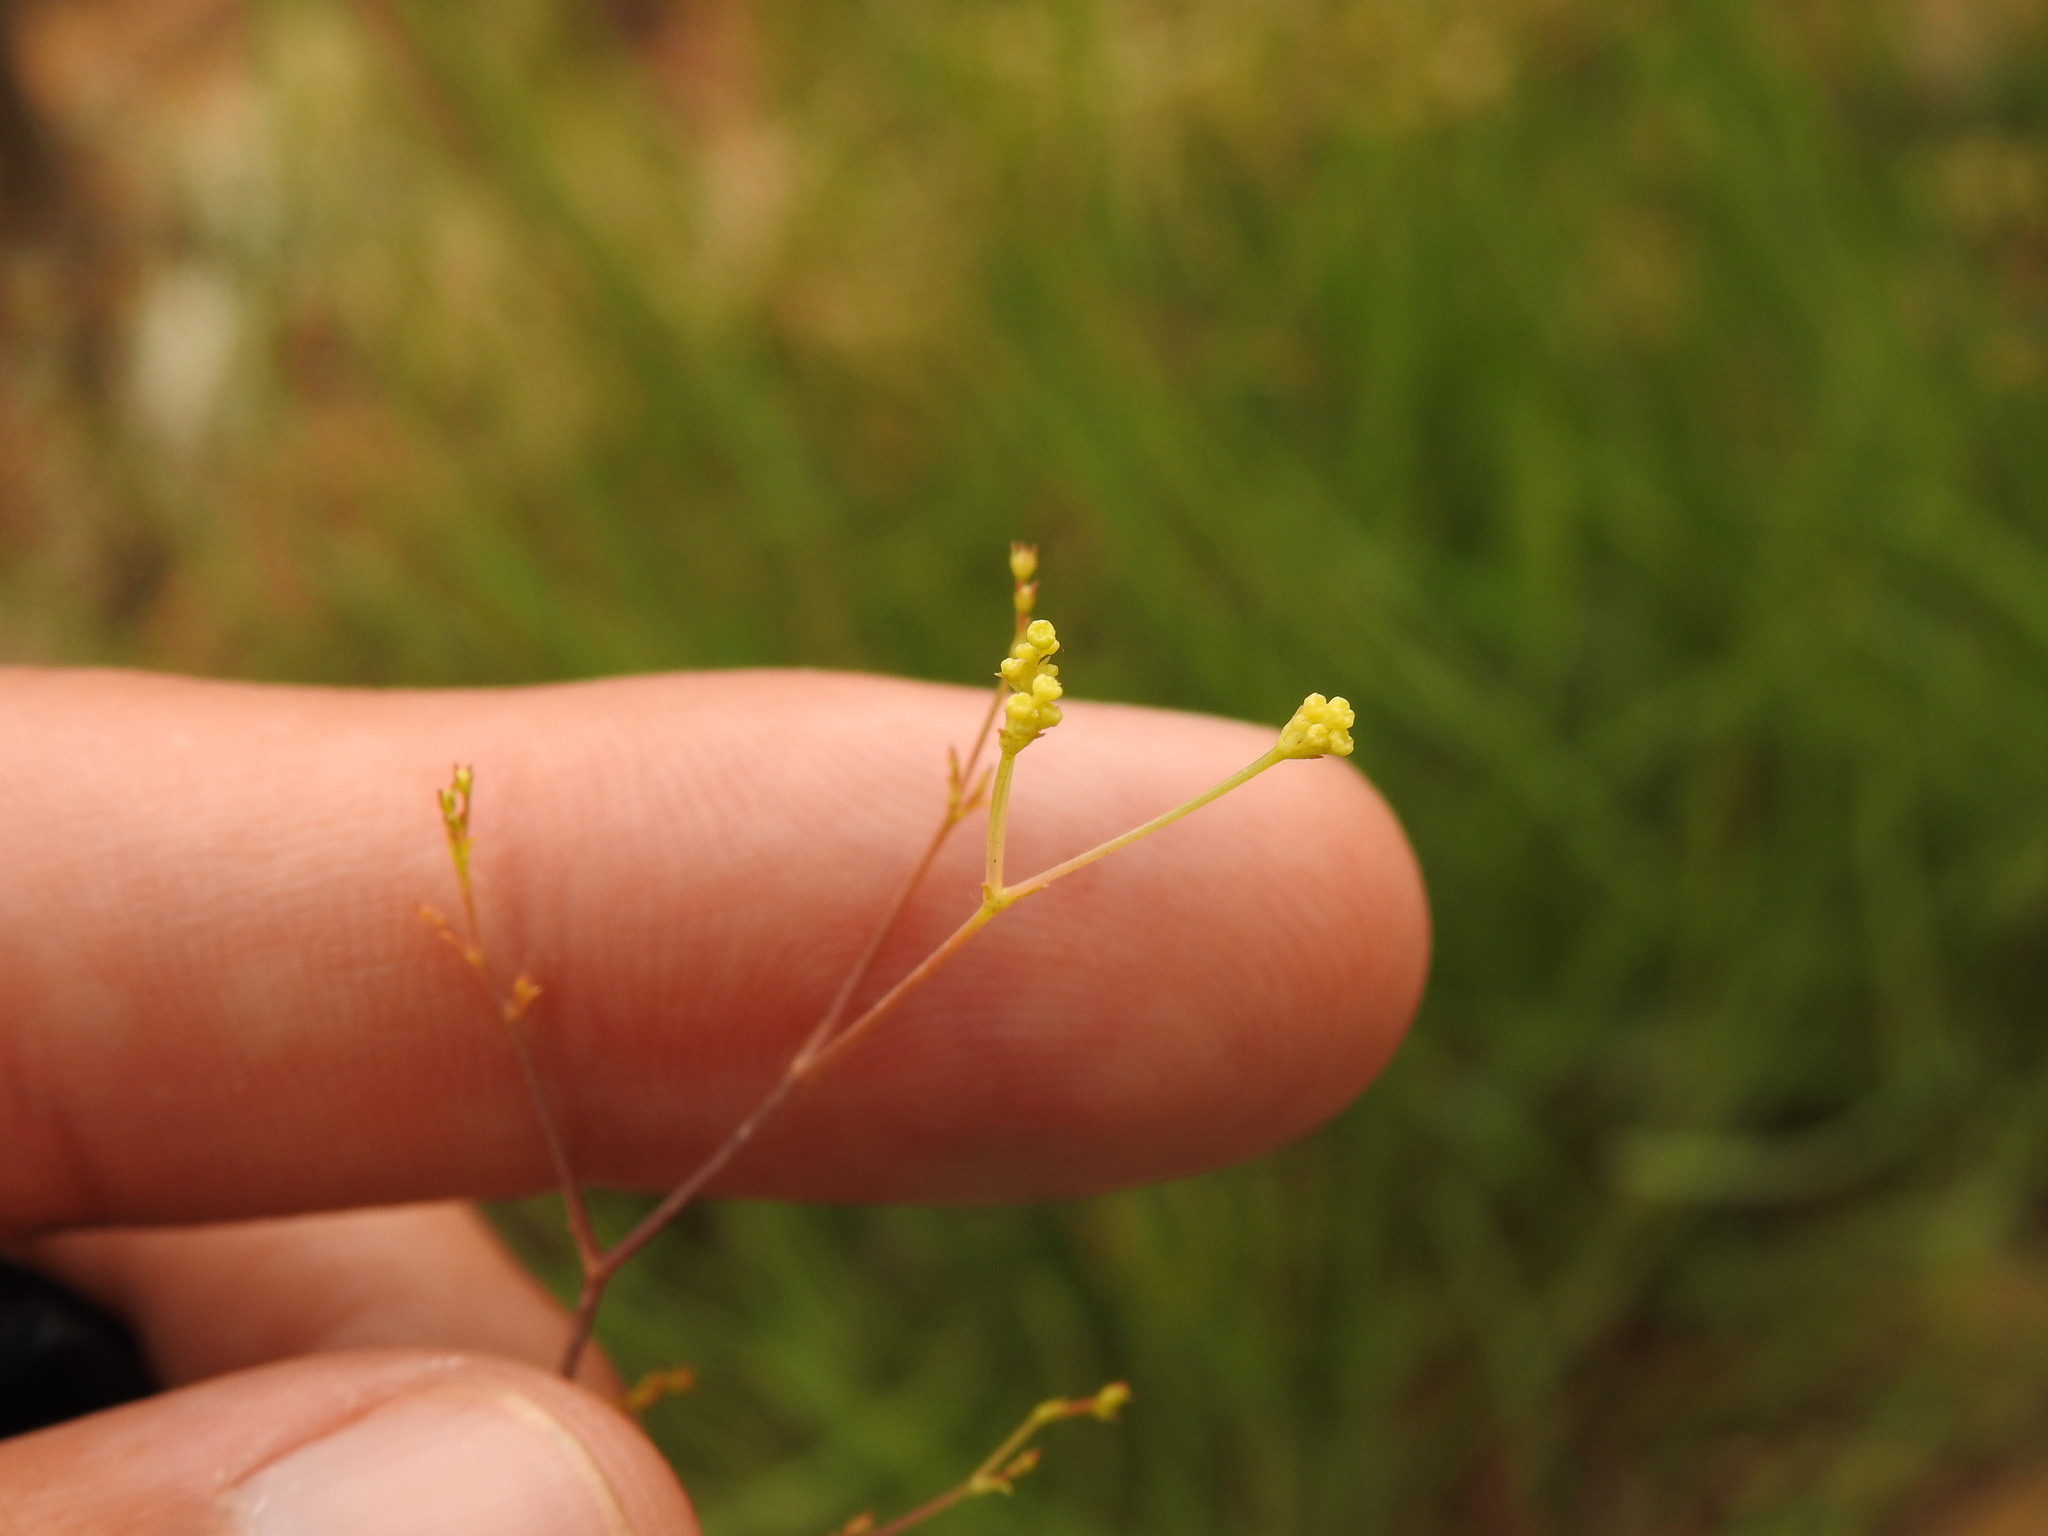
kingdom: Plantae
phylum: Tracheophyta
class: Magnoliopsida
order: Apiales
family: Apiaceae
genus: Bupleurum
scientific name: Bupleurum rigidum
